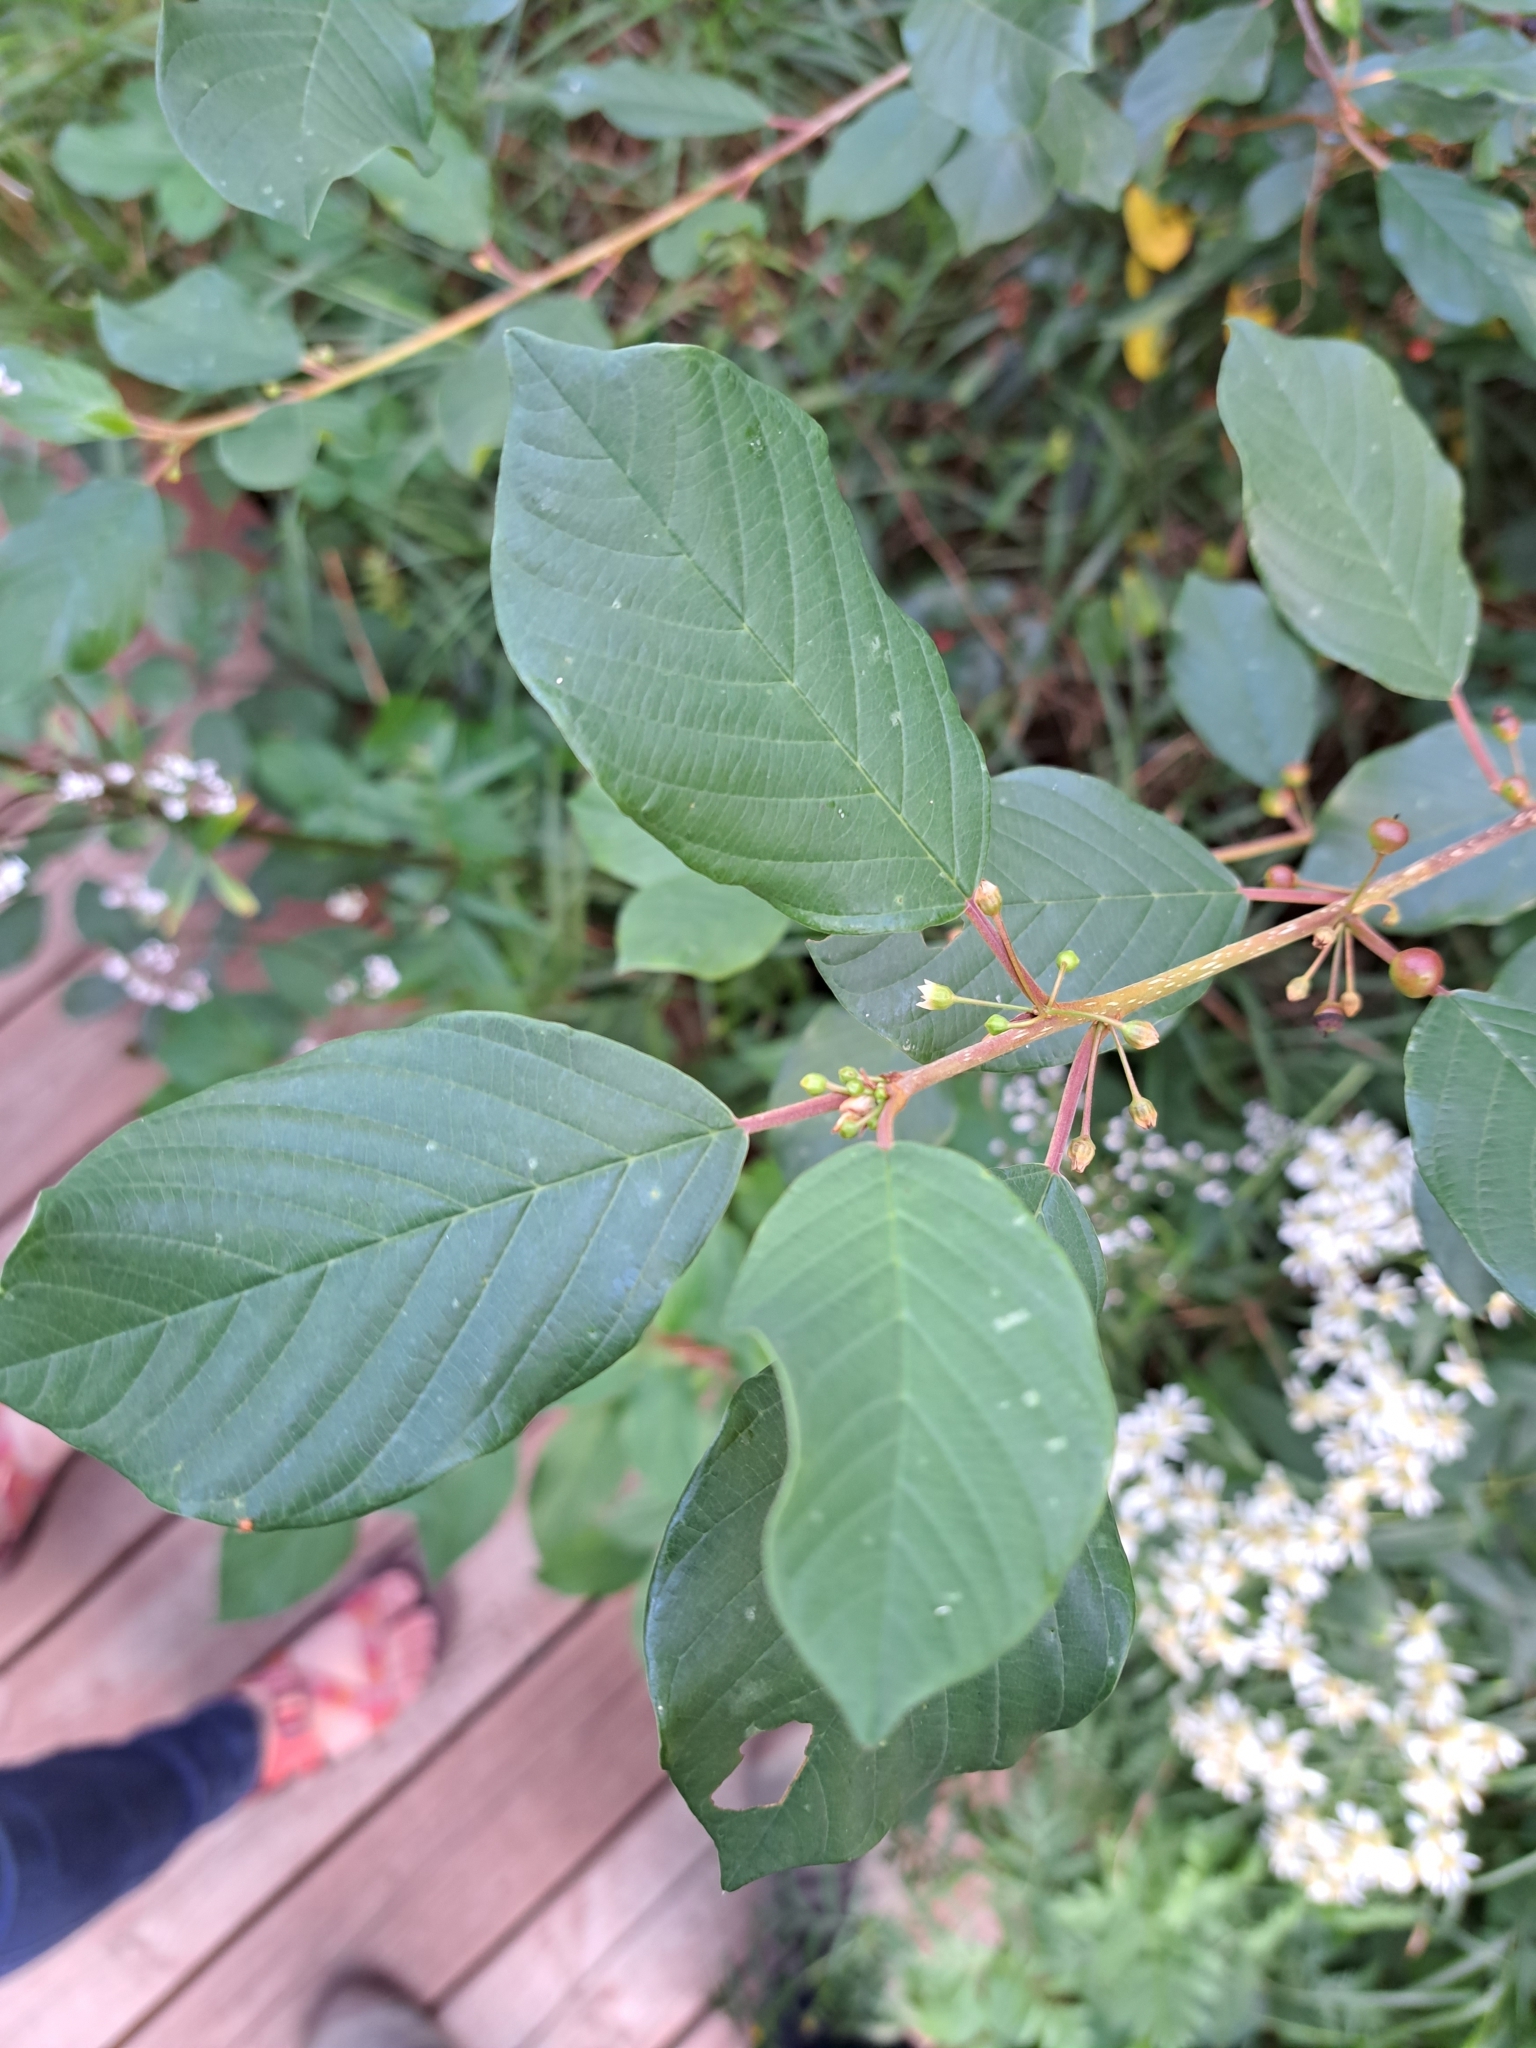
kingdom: Plantae
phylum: Tracheophyta
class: Magnoliopsida
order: Rosales
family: Rhamnaceae
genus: Frangula
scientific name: Frangula alnus
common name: Alder buckthorn
